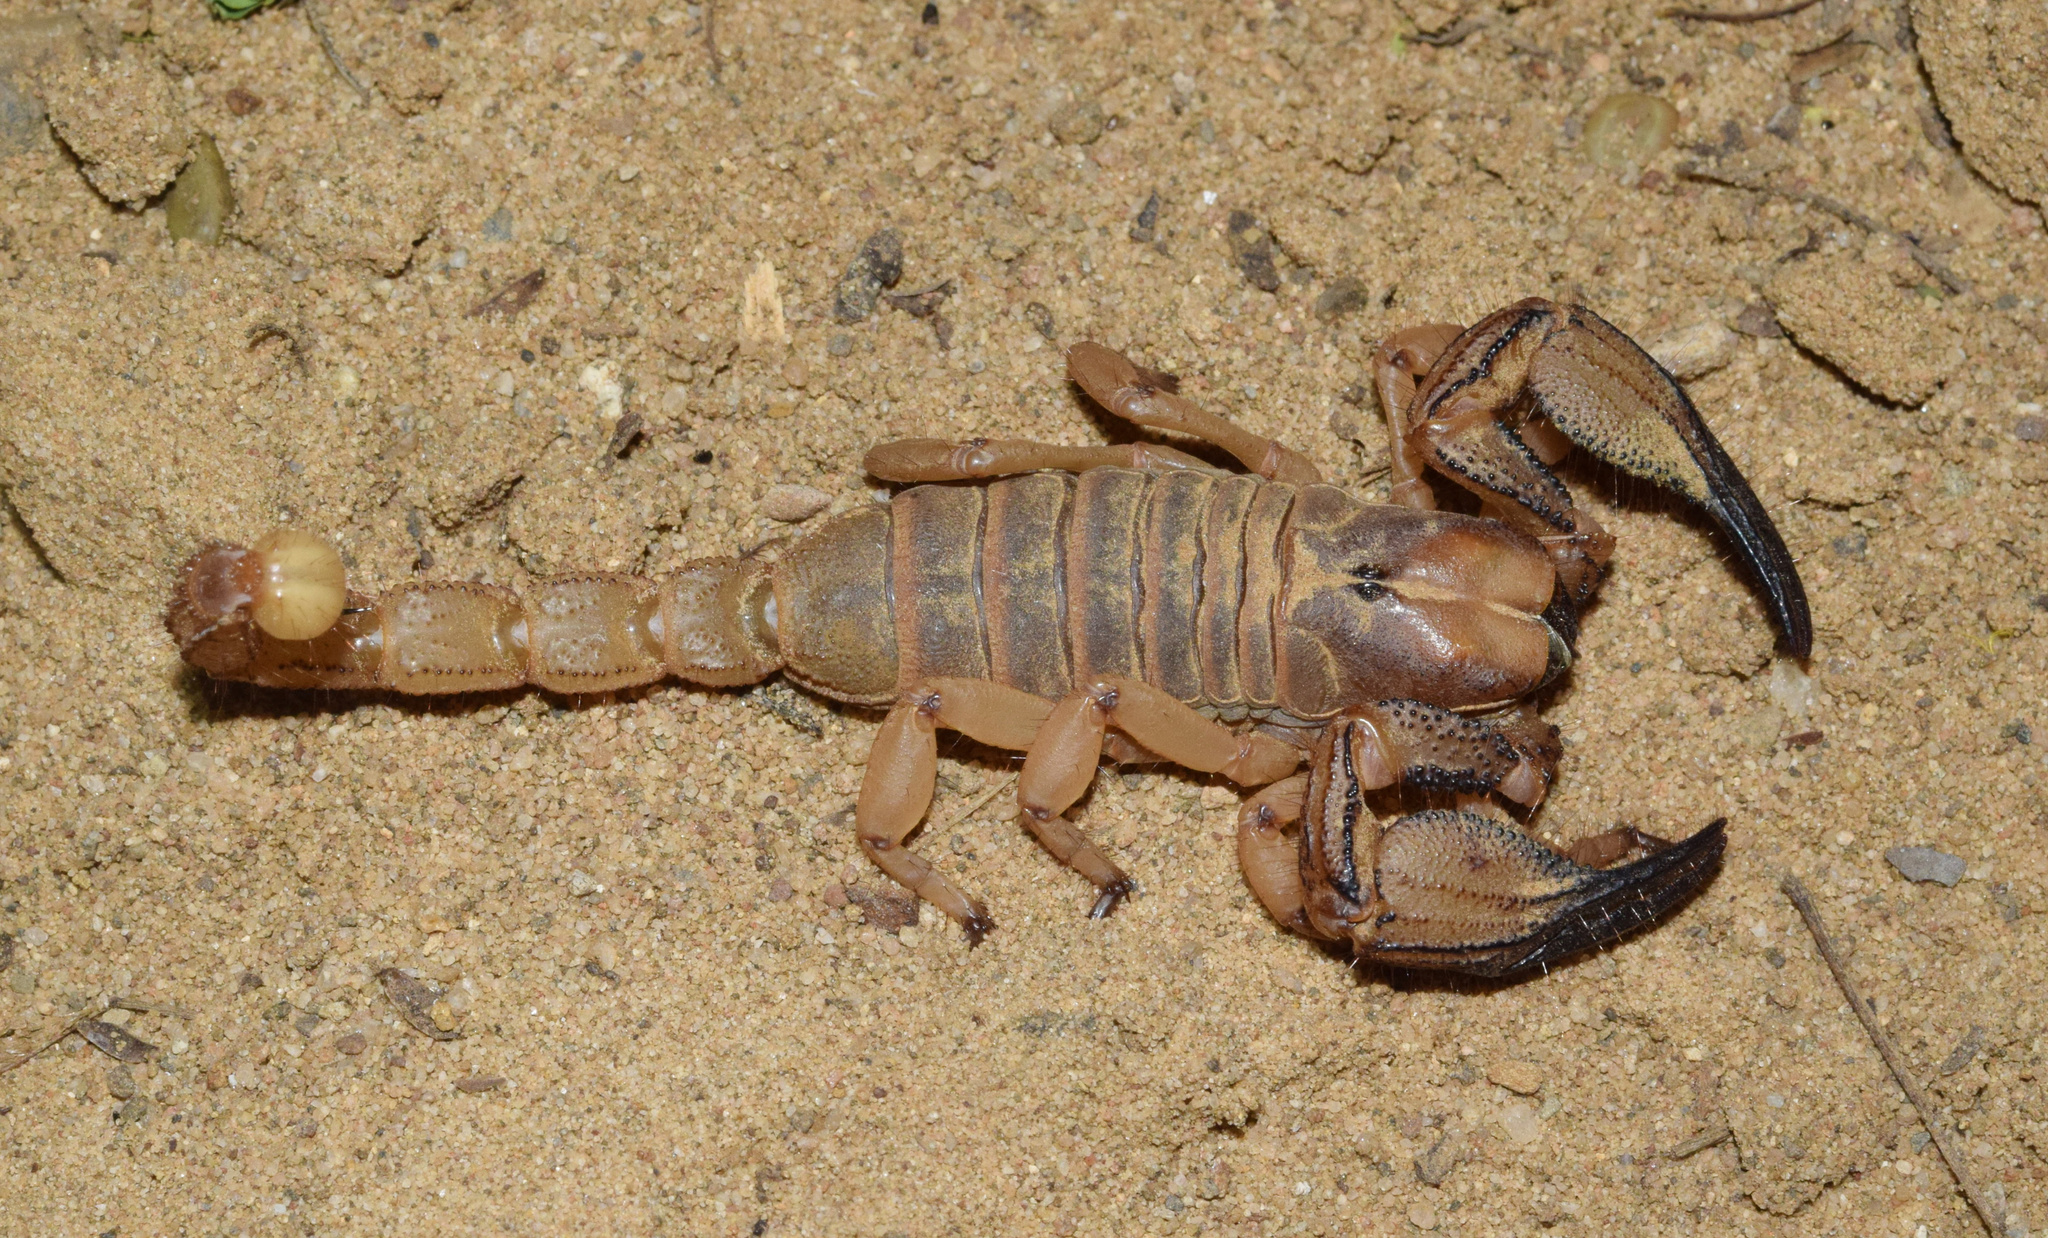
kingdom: Animalia
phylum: Arthropoda
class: Arachnida
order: Scorpiones
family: Scorpionidae
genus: Opistophthalmus
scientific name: Opistophthalmus praedo
